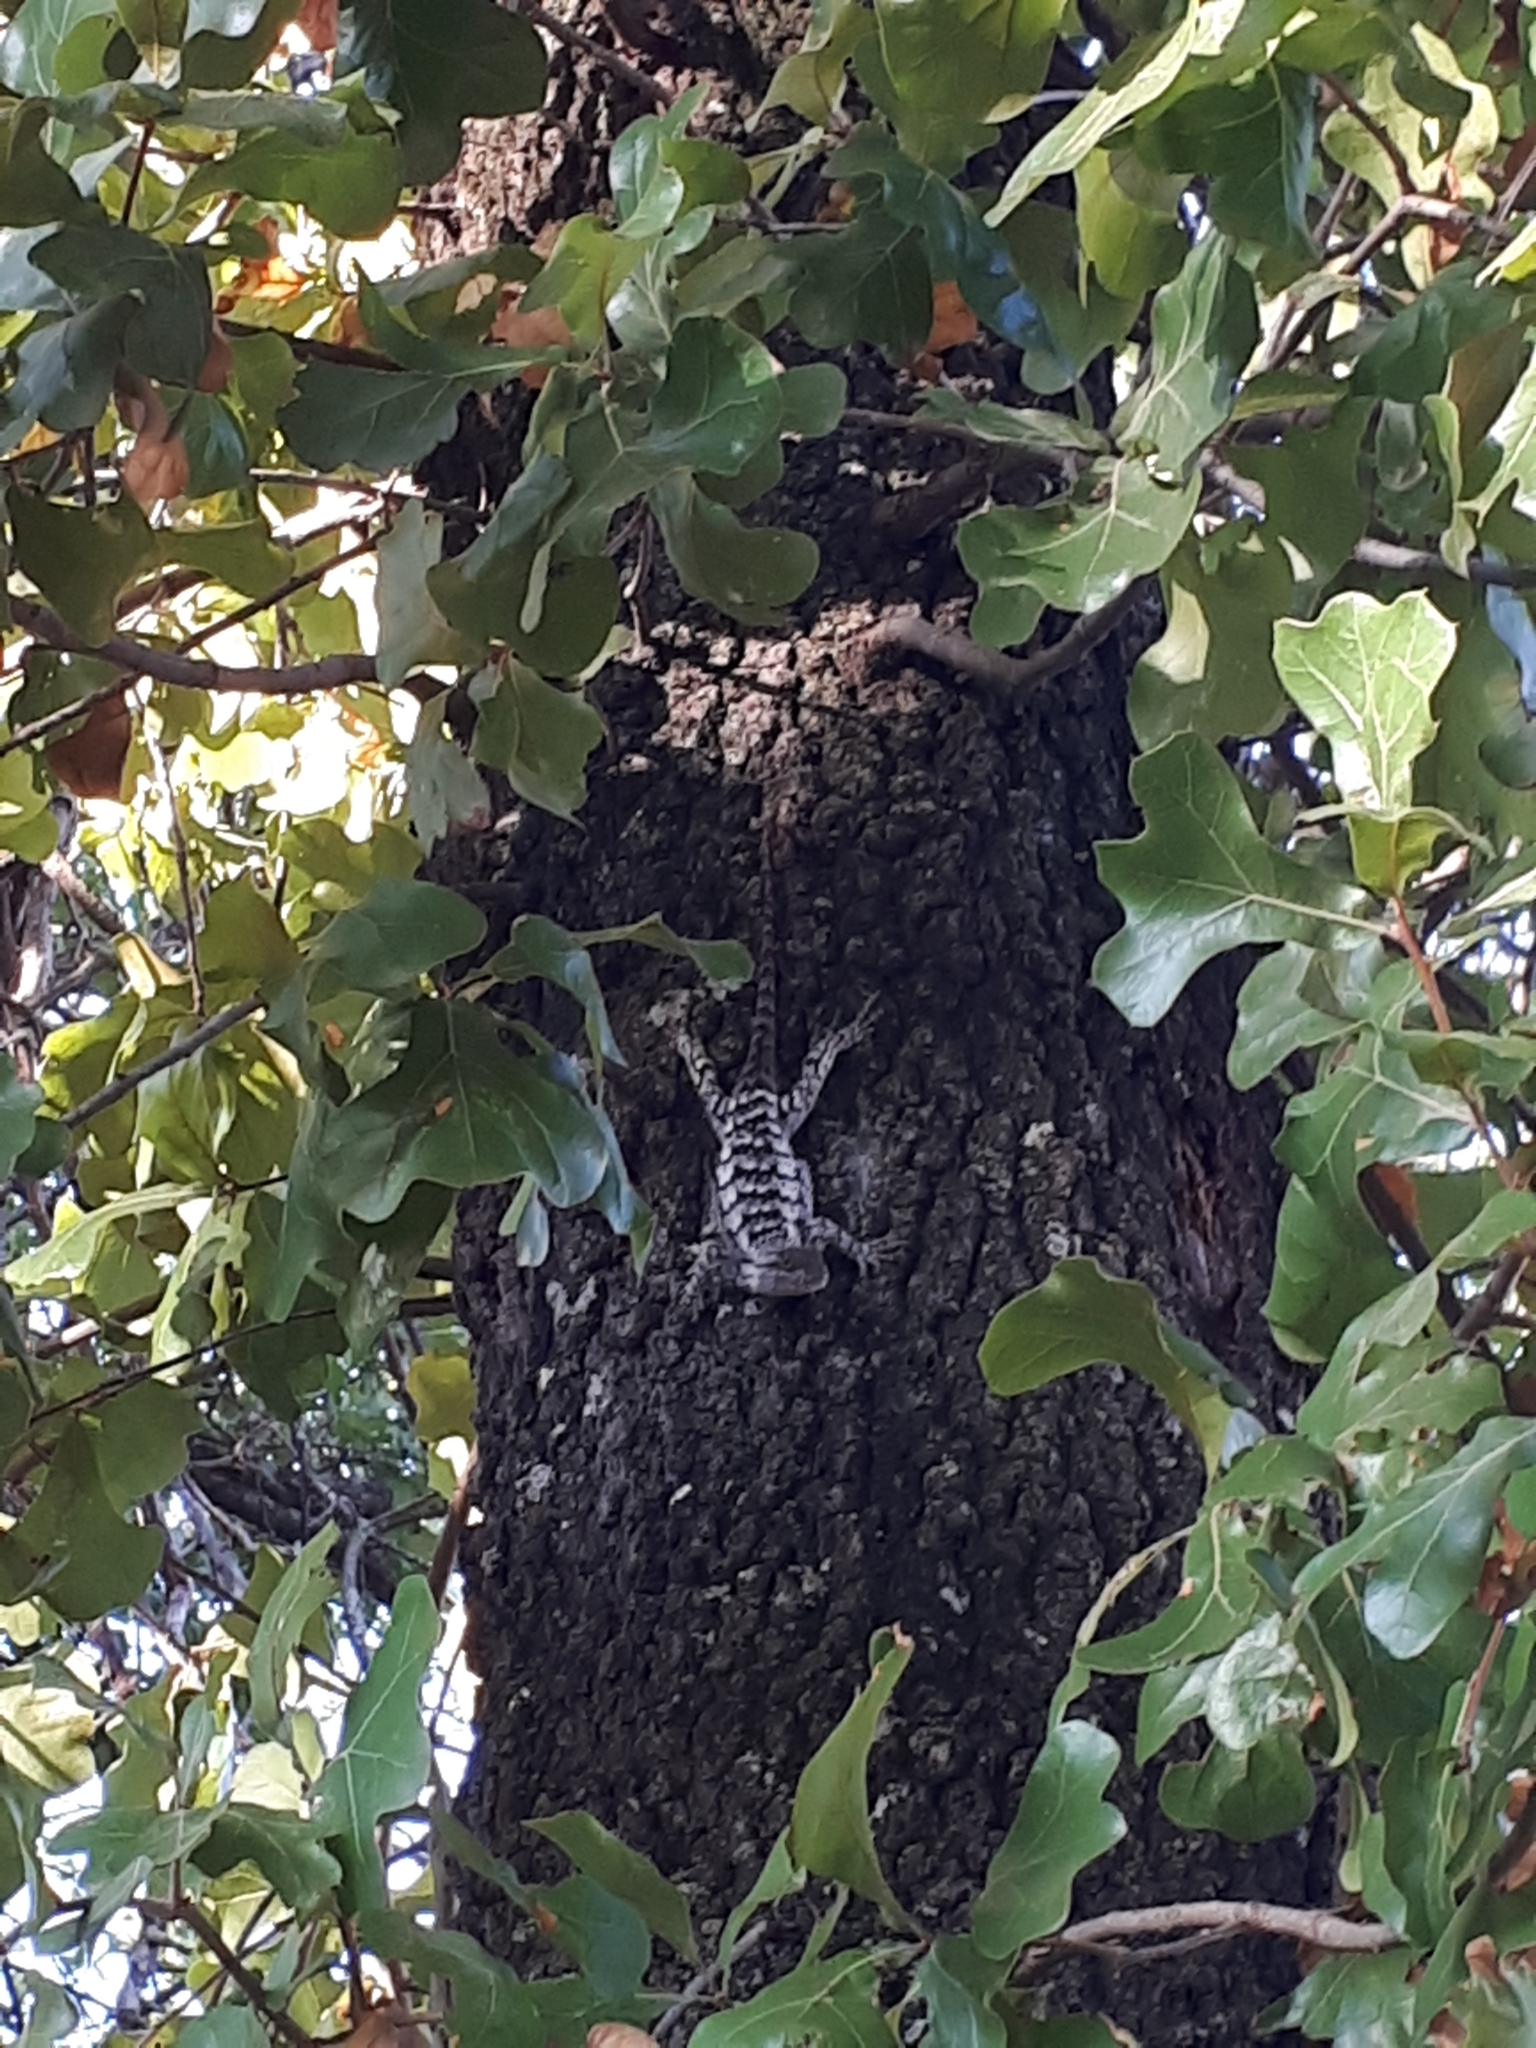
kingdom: Animalia
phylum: Chordata
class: Squamata
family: Phrynosomatidae
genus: Sceloporus
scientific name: Sceloporus olivaceus
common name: Texas spiny lizard
